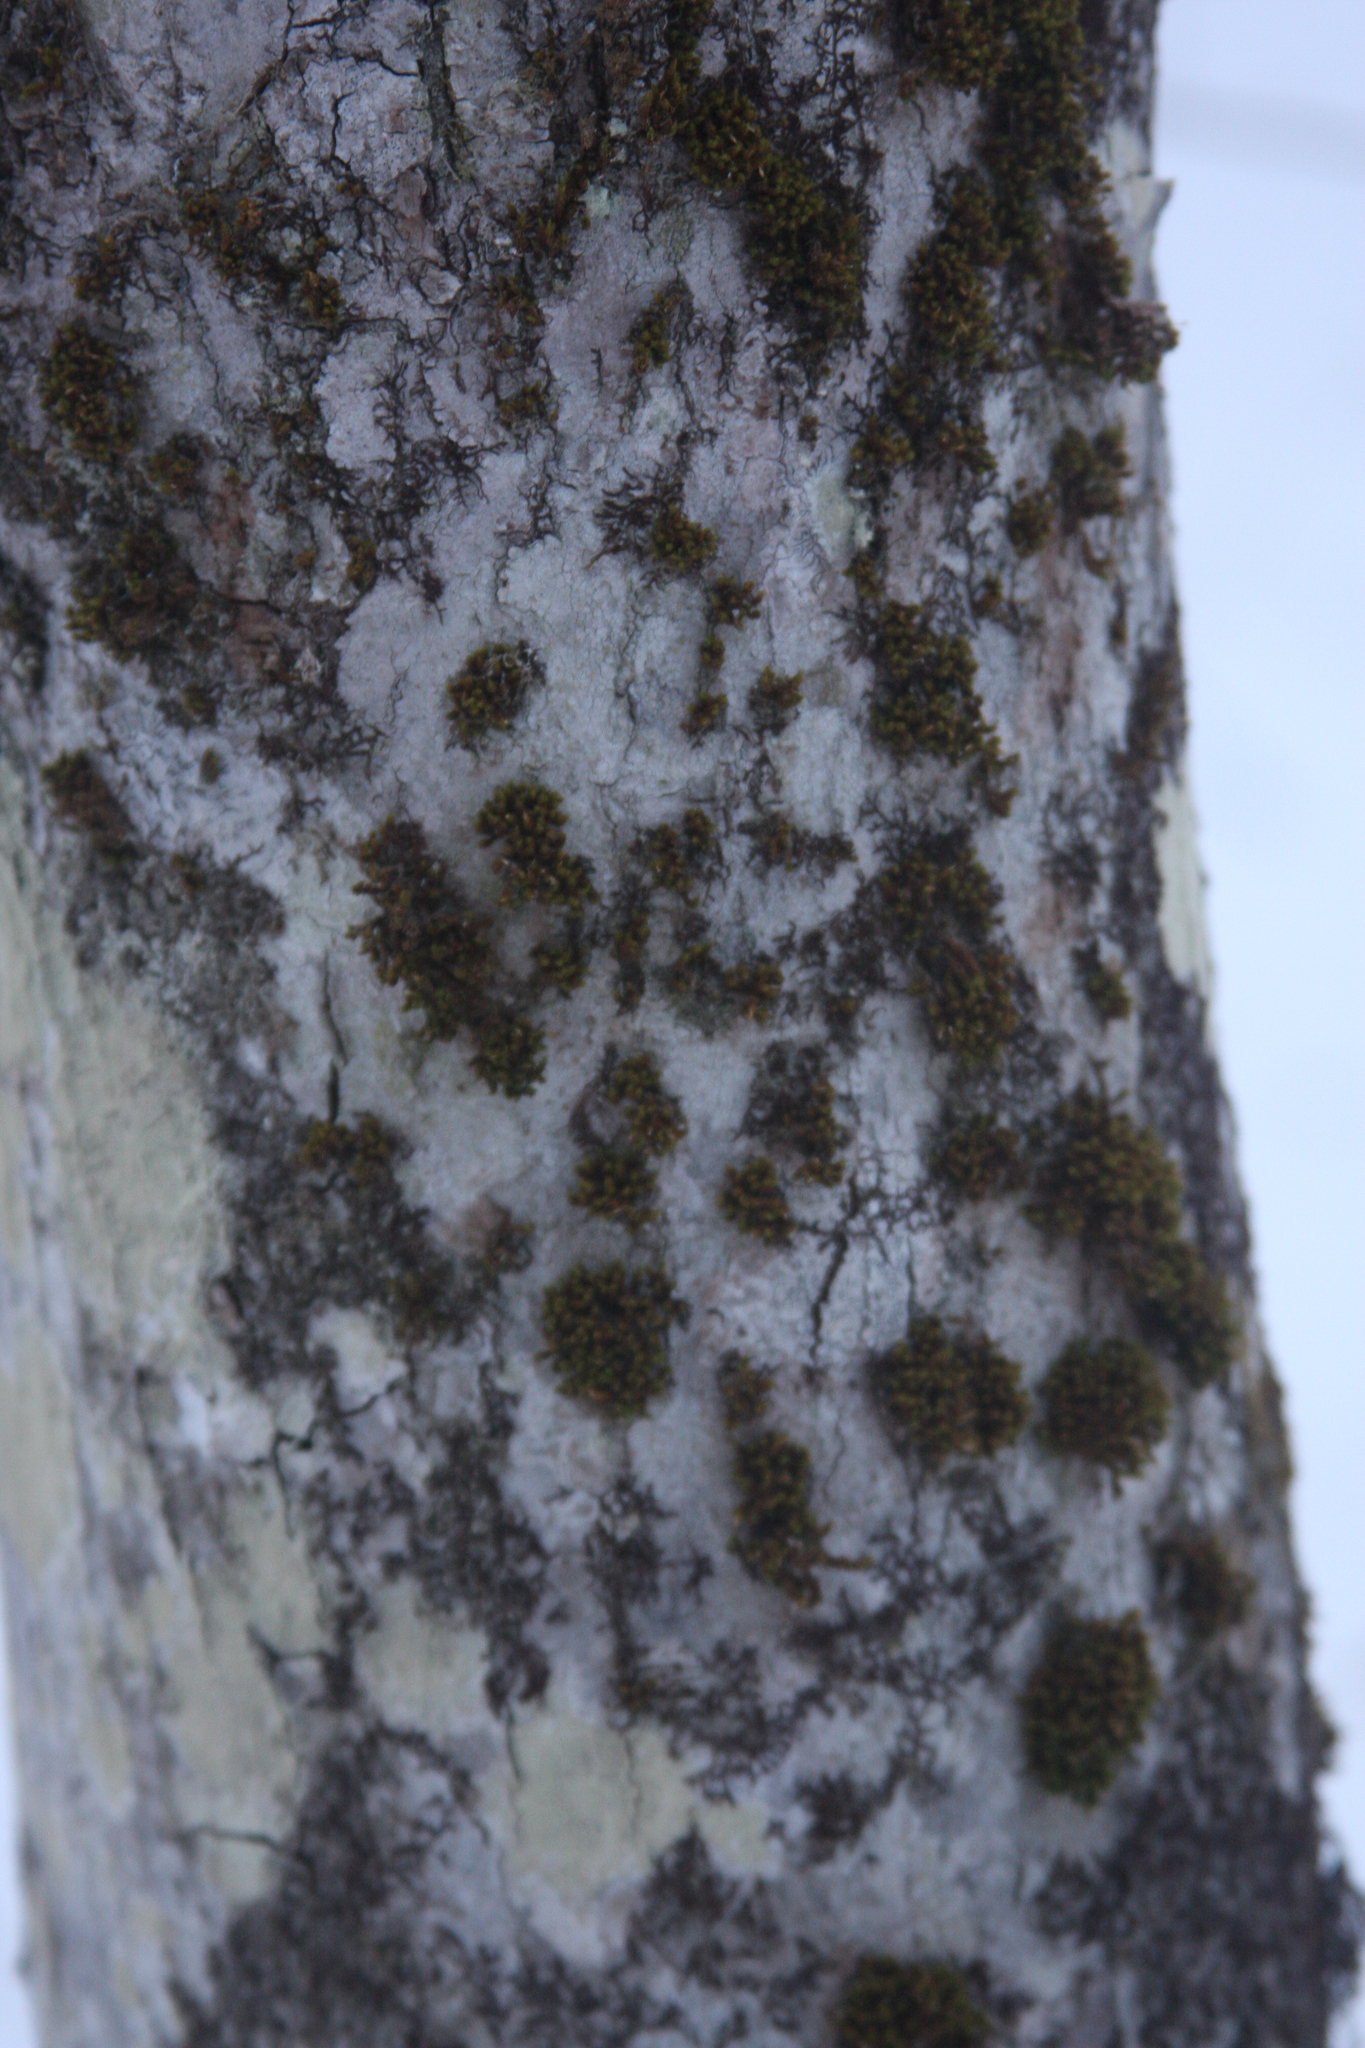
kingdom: Plantae
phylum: Bryophyta
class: Bryopsida
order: Orthotrichales
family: Orthotrichaceae
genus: Ulota
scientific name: Ulota crispa
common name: Crisped pincushion moss
